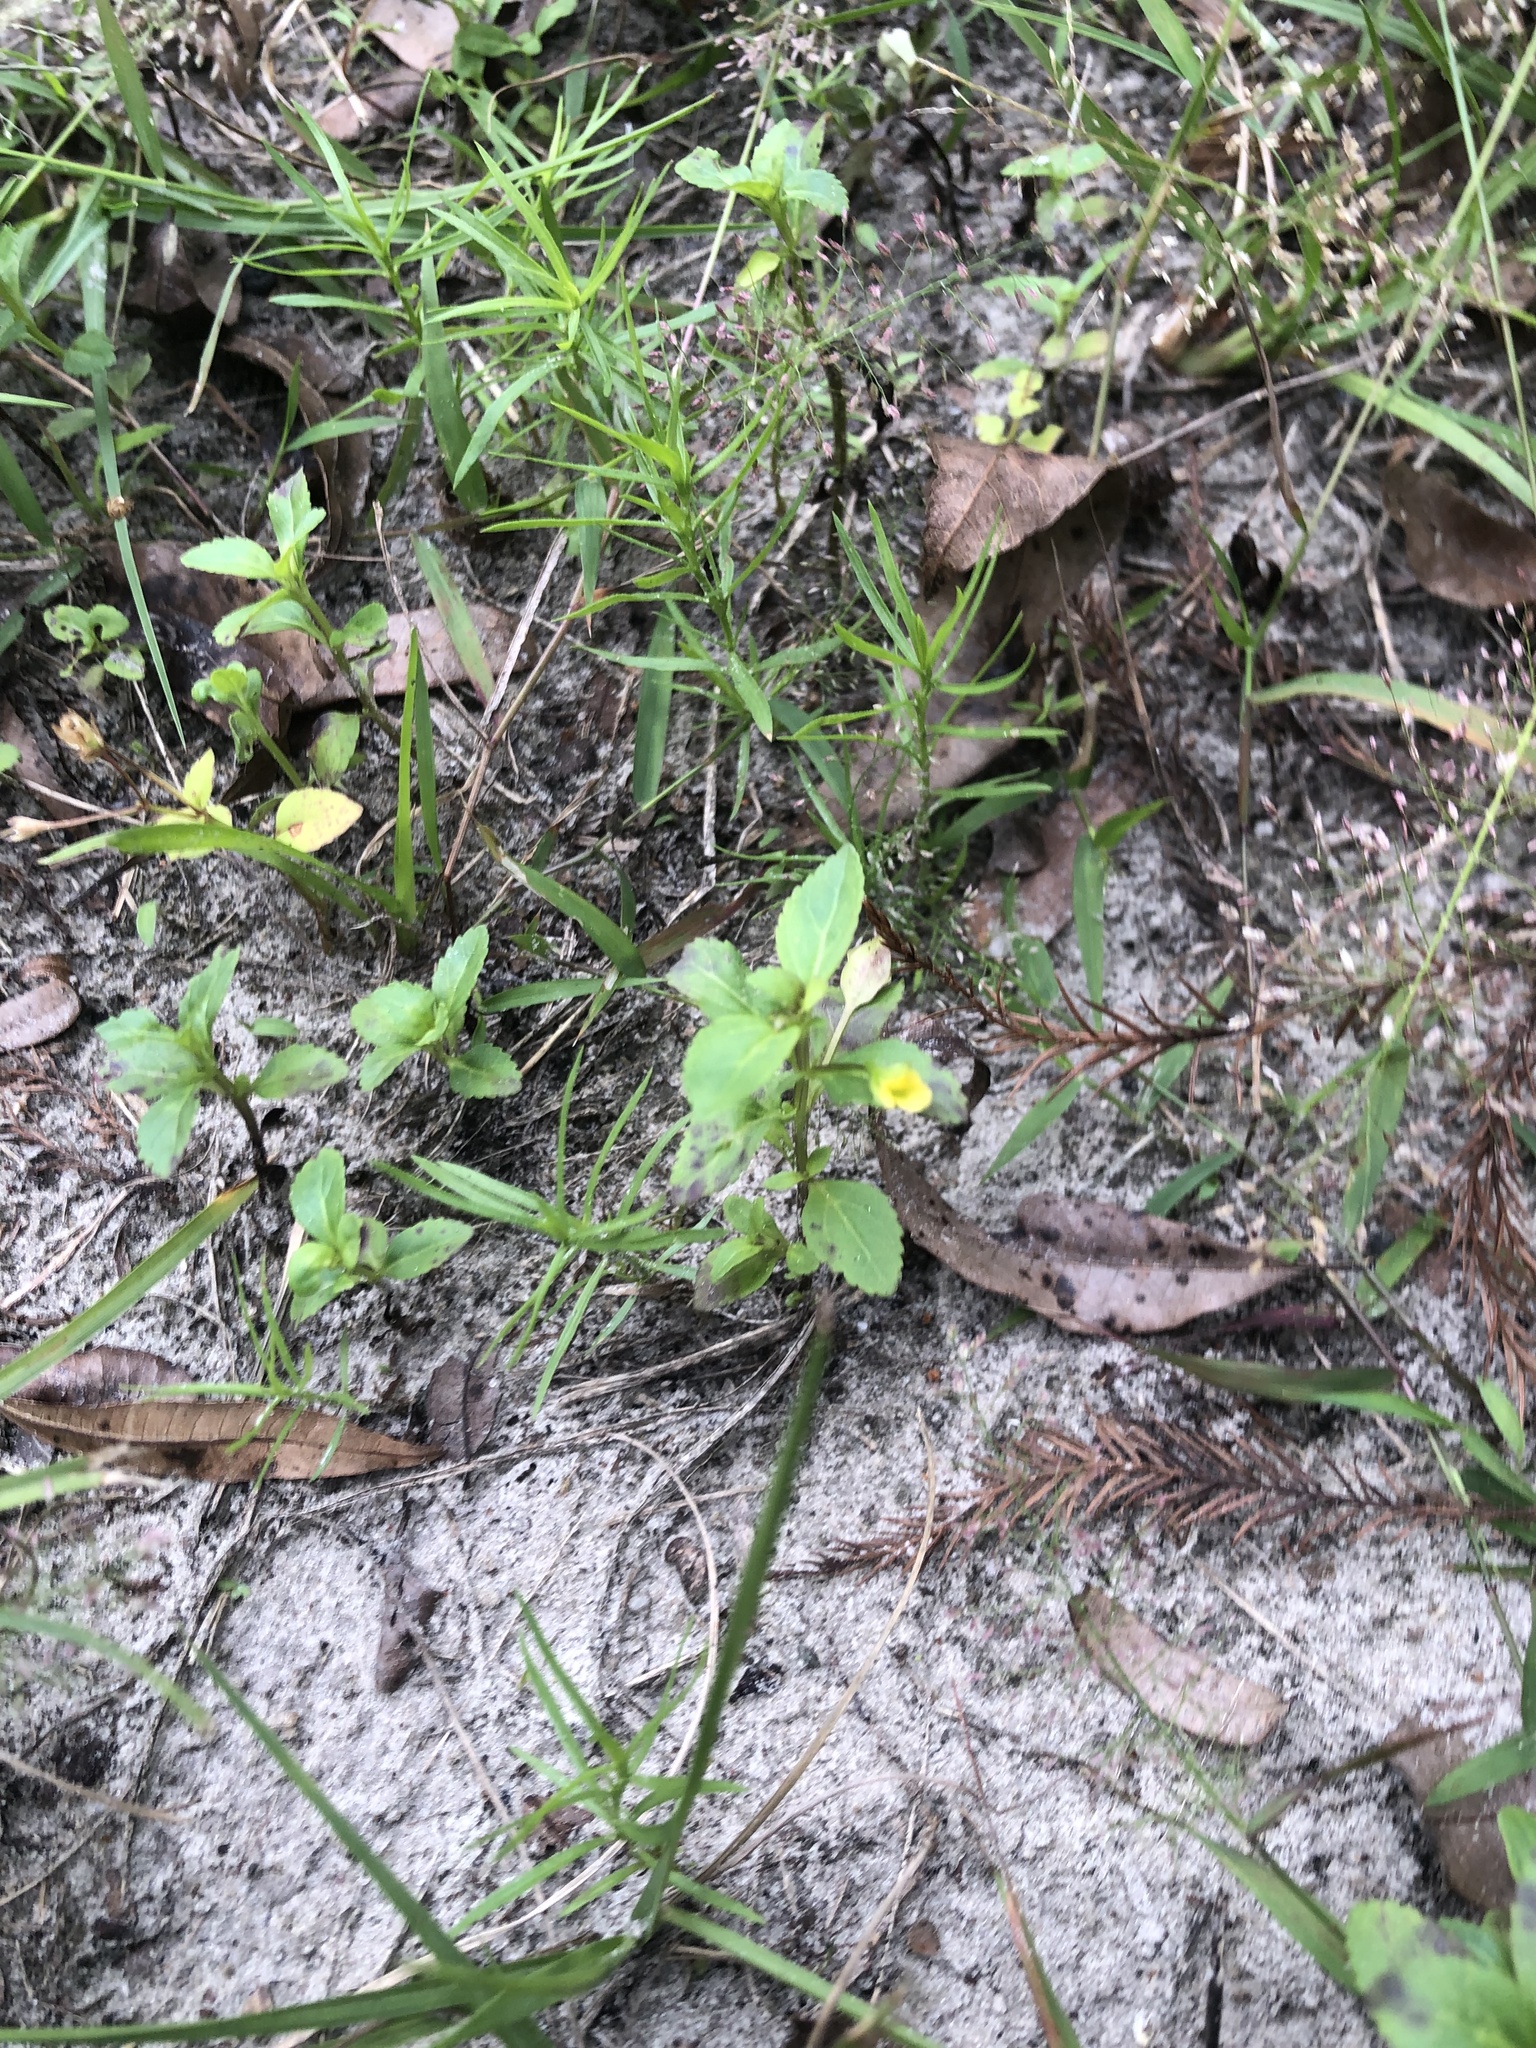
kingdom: Plantae
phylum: Tracheophyta
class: Magnoliopsida
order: Lamiales
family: Plantaginaceae
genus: Mecardonia
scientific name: Mecardonia procumbens
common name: Baby jump-up
